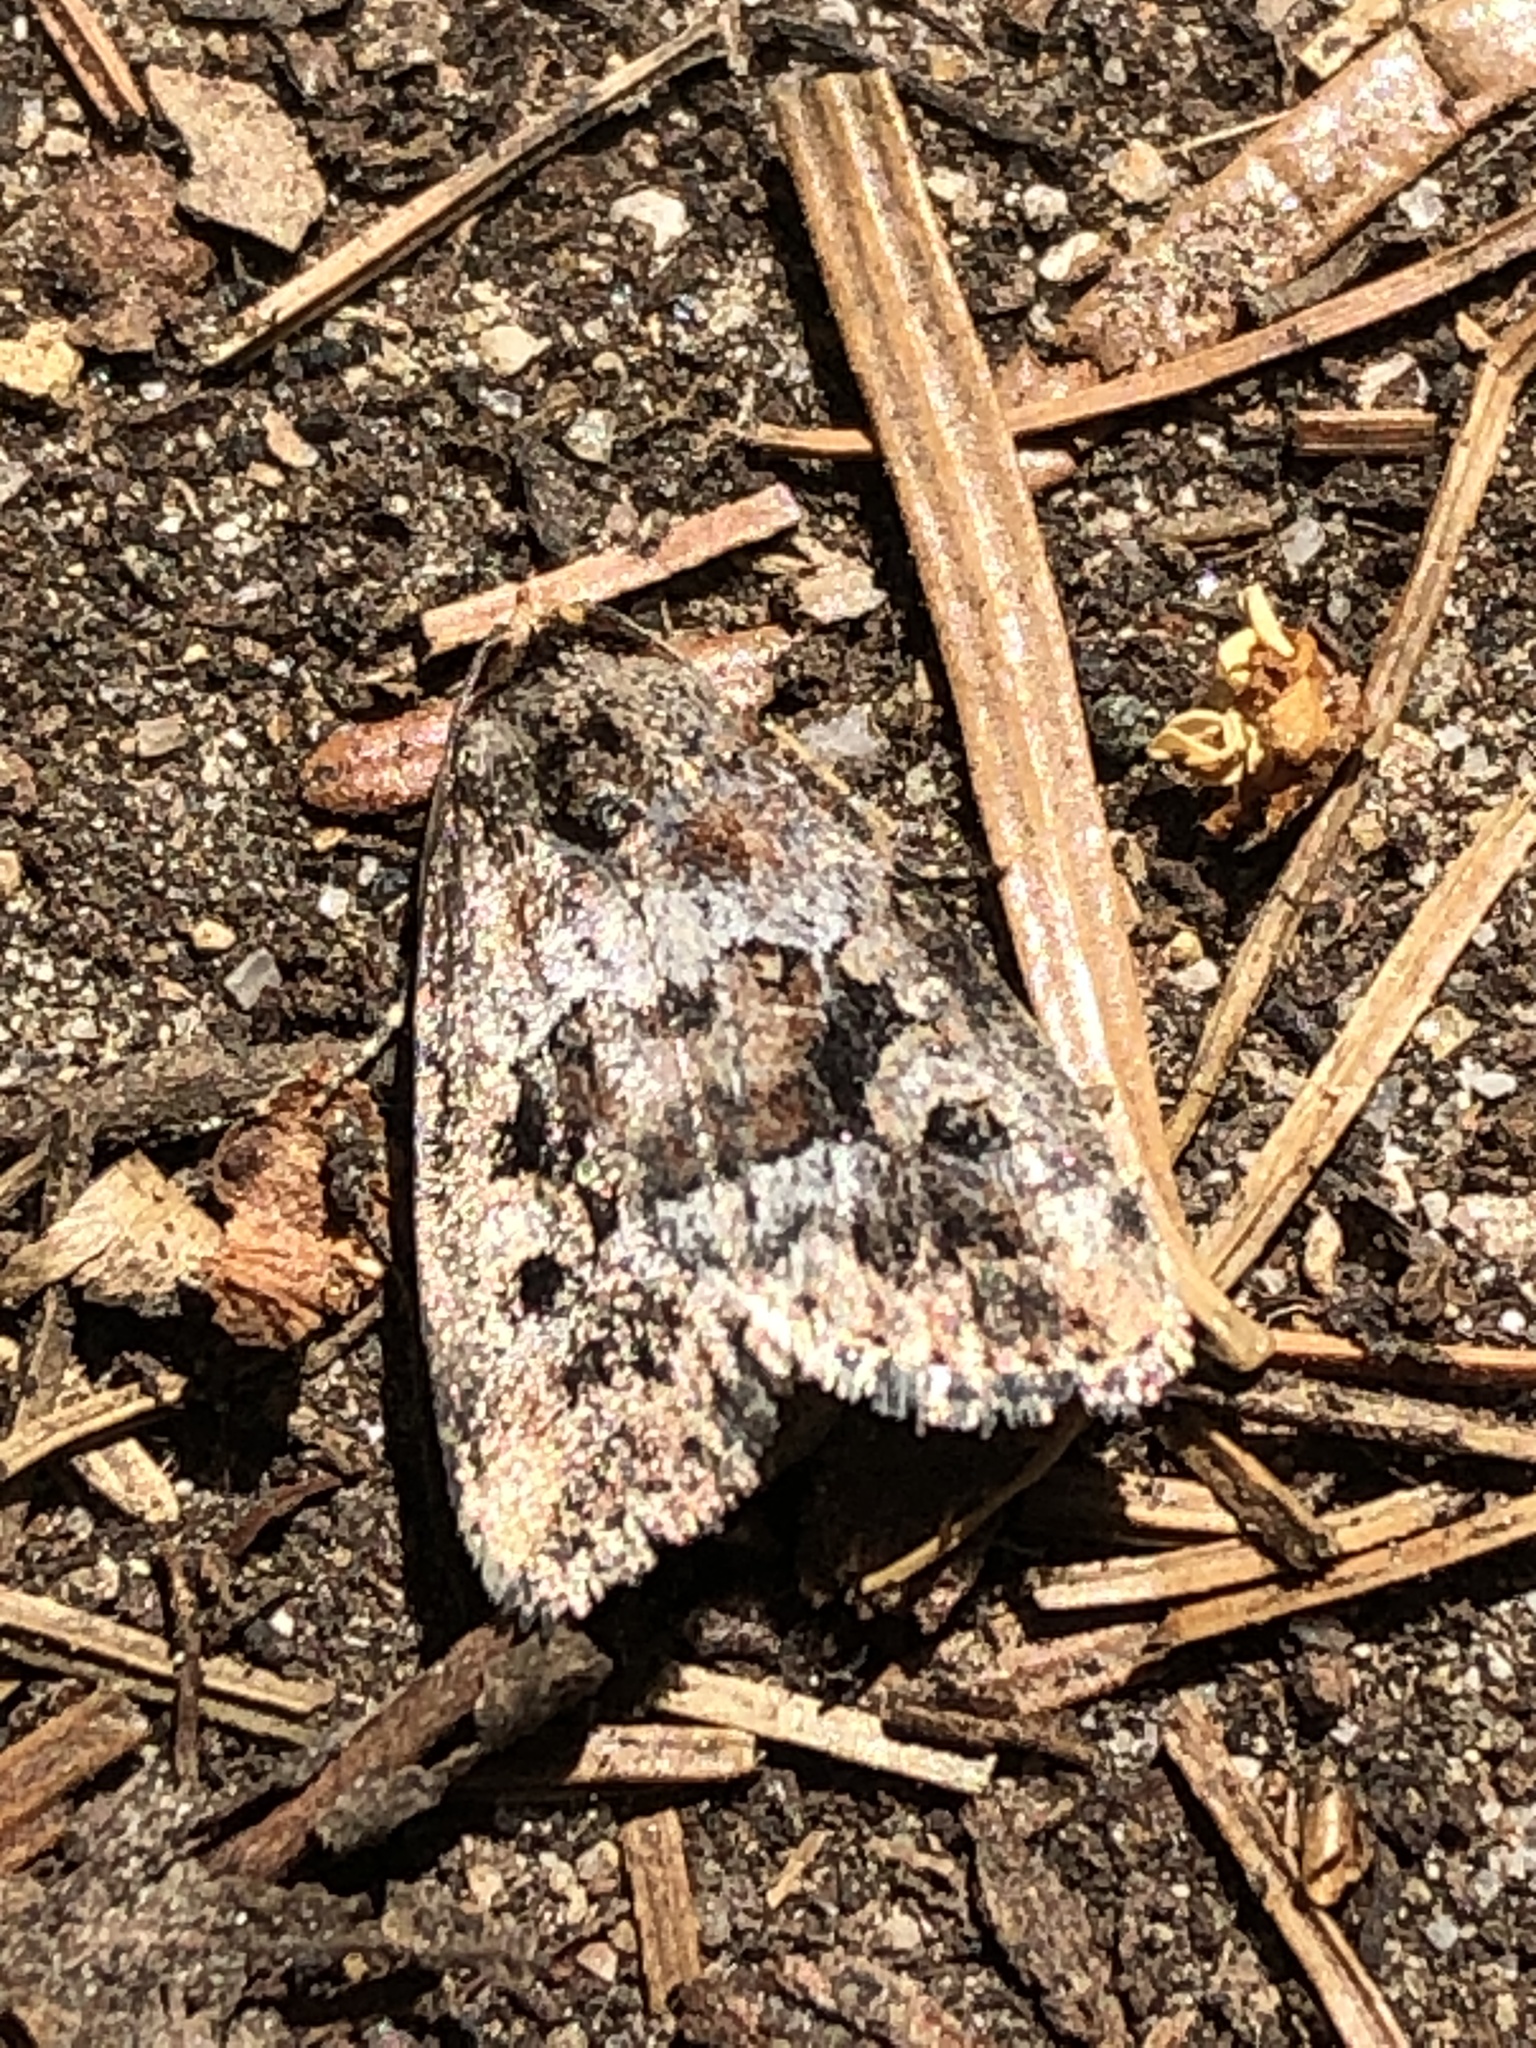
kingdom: Animalia
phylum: Arthropoda
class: Insecta
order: Lepidoptera
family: Noctuidae
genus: Elaphria
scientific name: Elaphria alapallida
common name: Pale-winged midget
